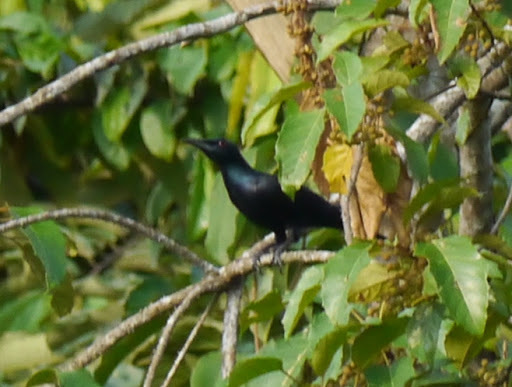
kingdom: Animalia
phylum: Chordata
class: Aves
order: Passeriformes
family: Sturnidae
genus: Onychognathus
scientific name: Onychognathus fulgidus
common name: Chestnut-winged starling
